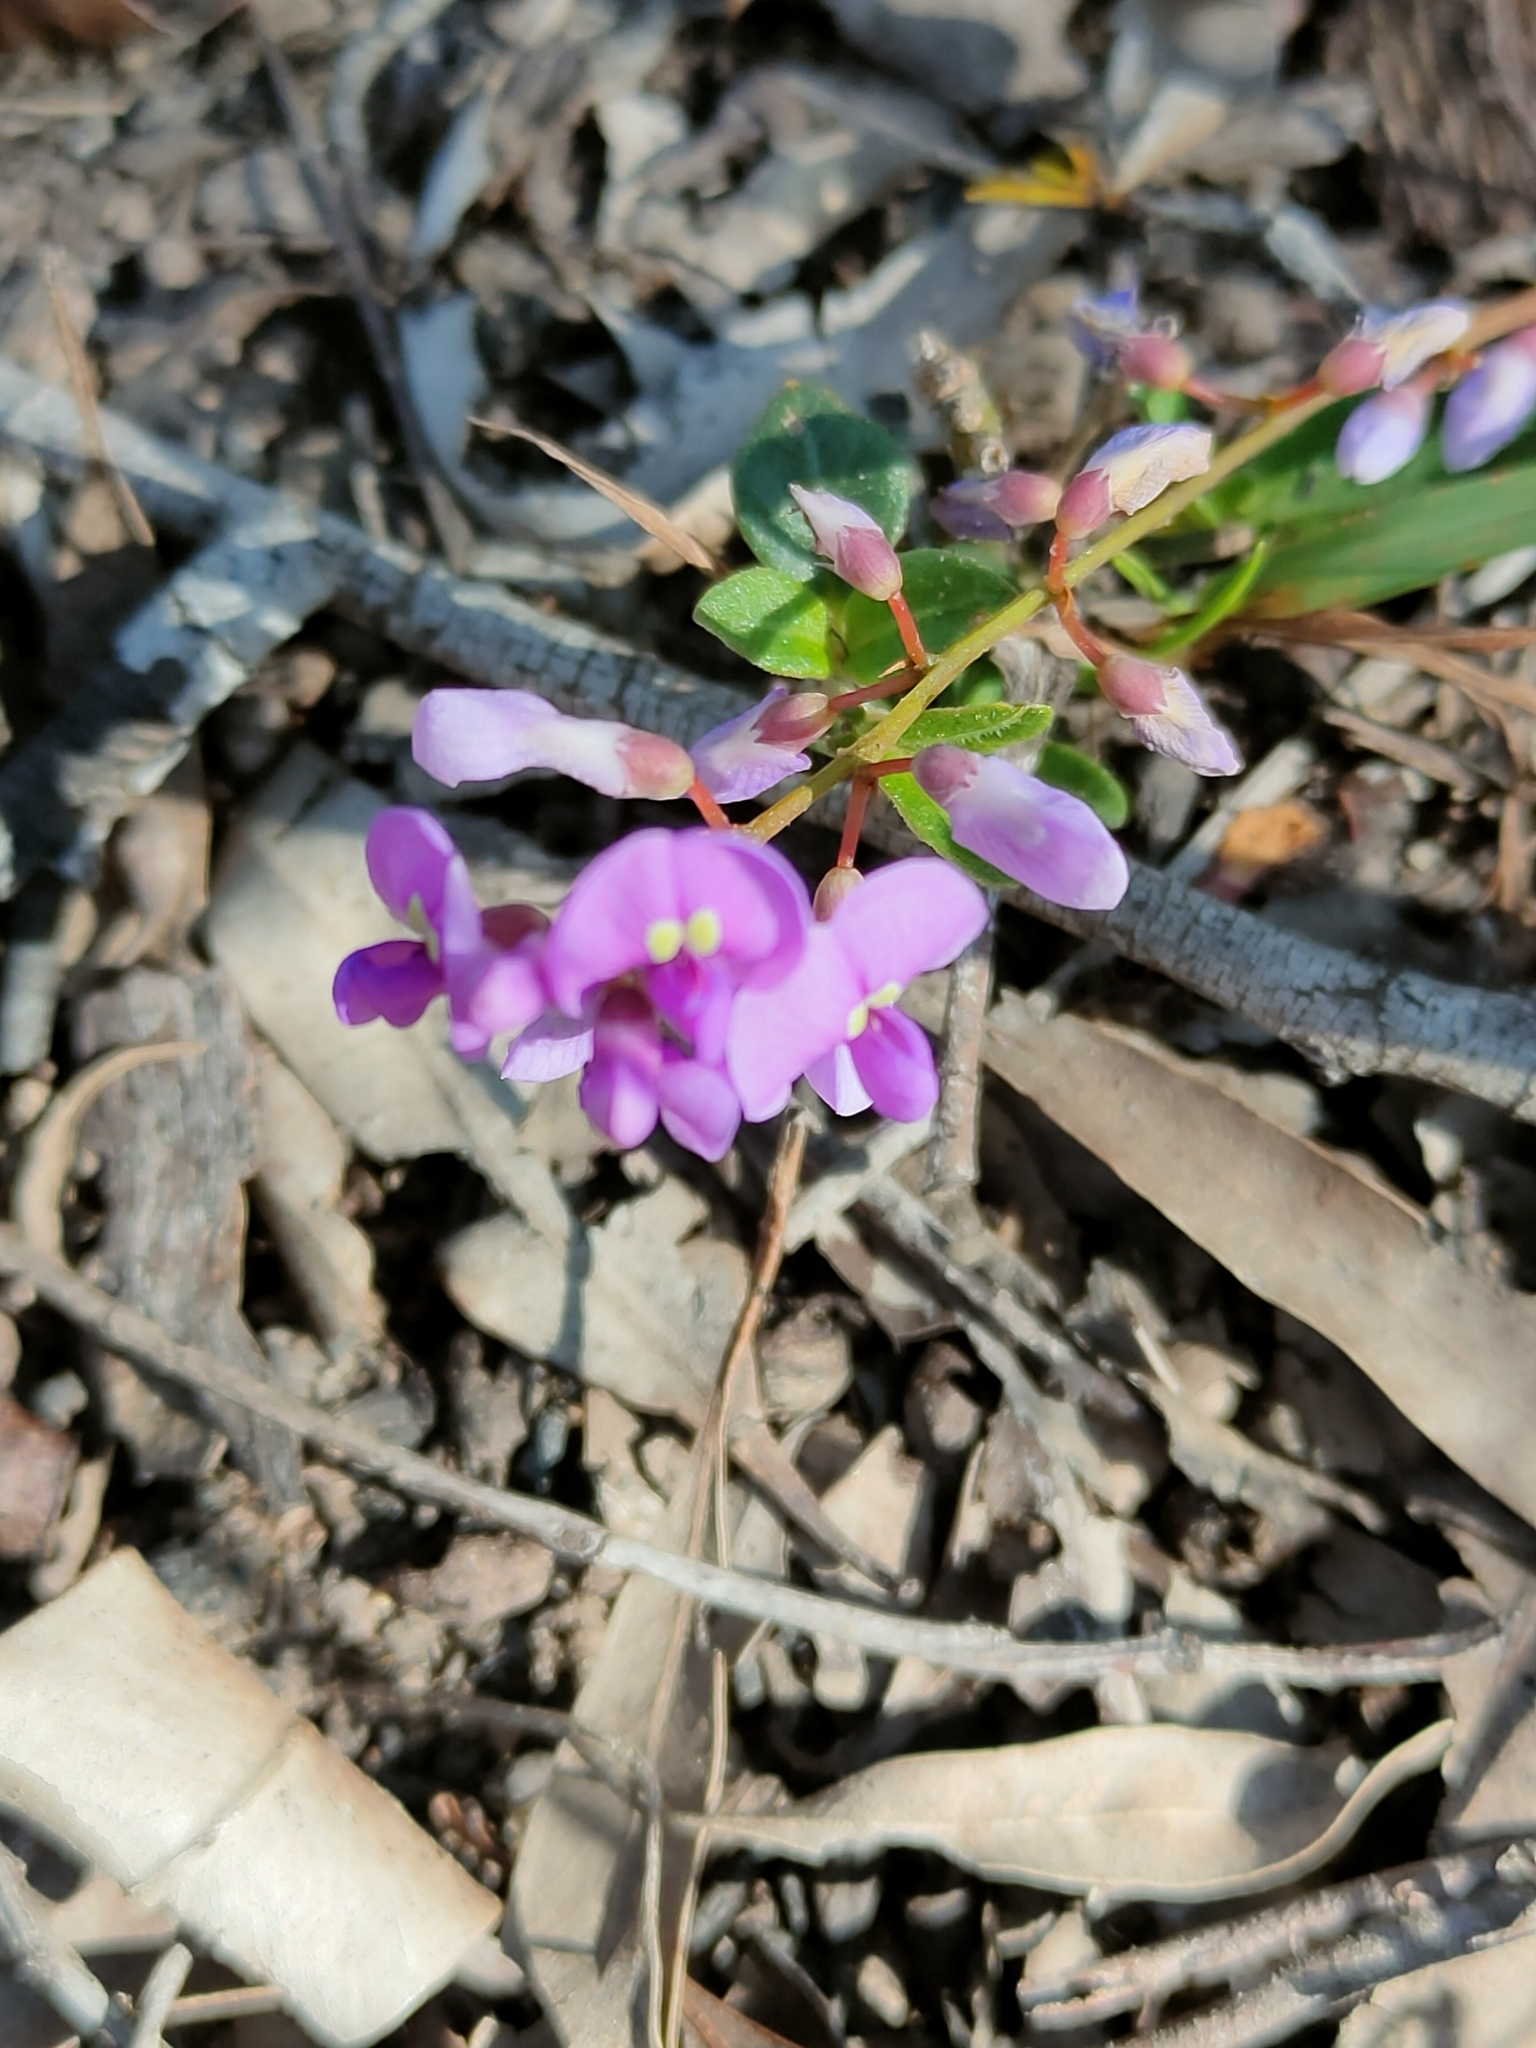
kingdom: Plantae
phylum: Tracheophyta
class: Magnoliopsida
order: Fabales
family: Fabaceae
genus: Hardenbergia
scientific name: Hardenbergia violacea
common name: Coral-pea
